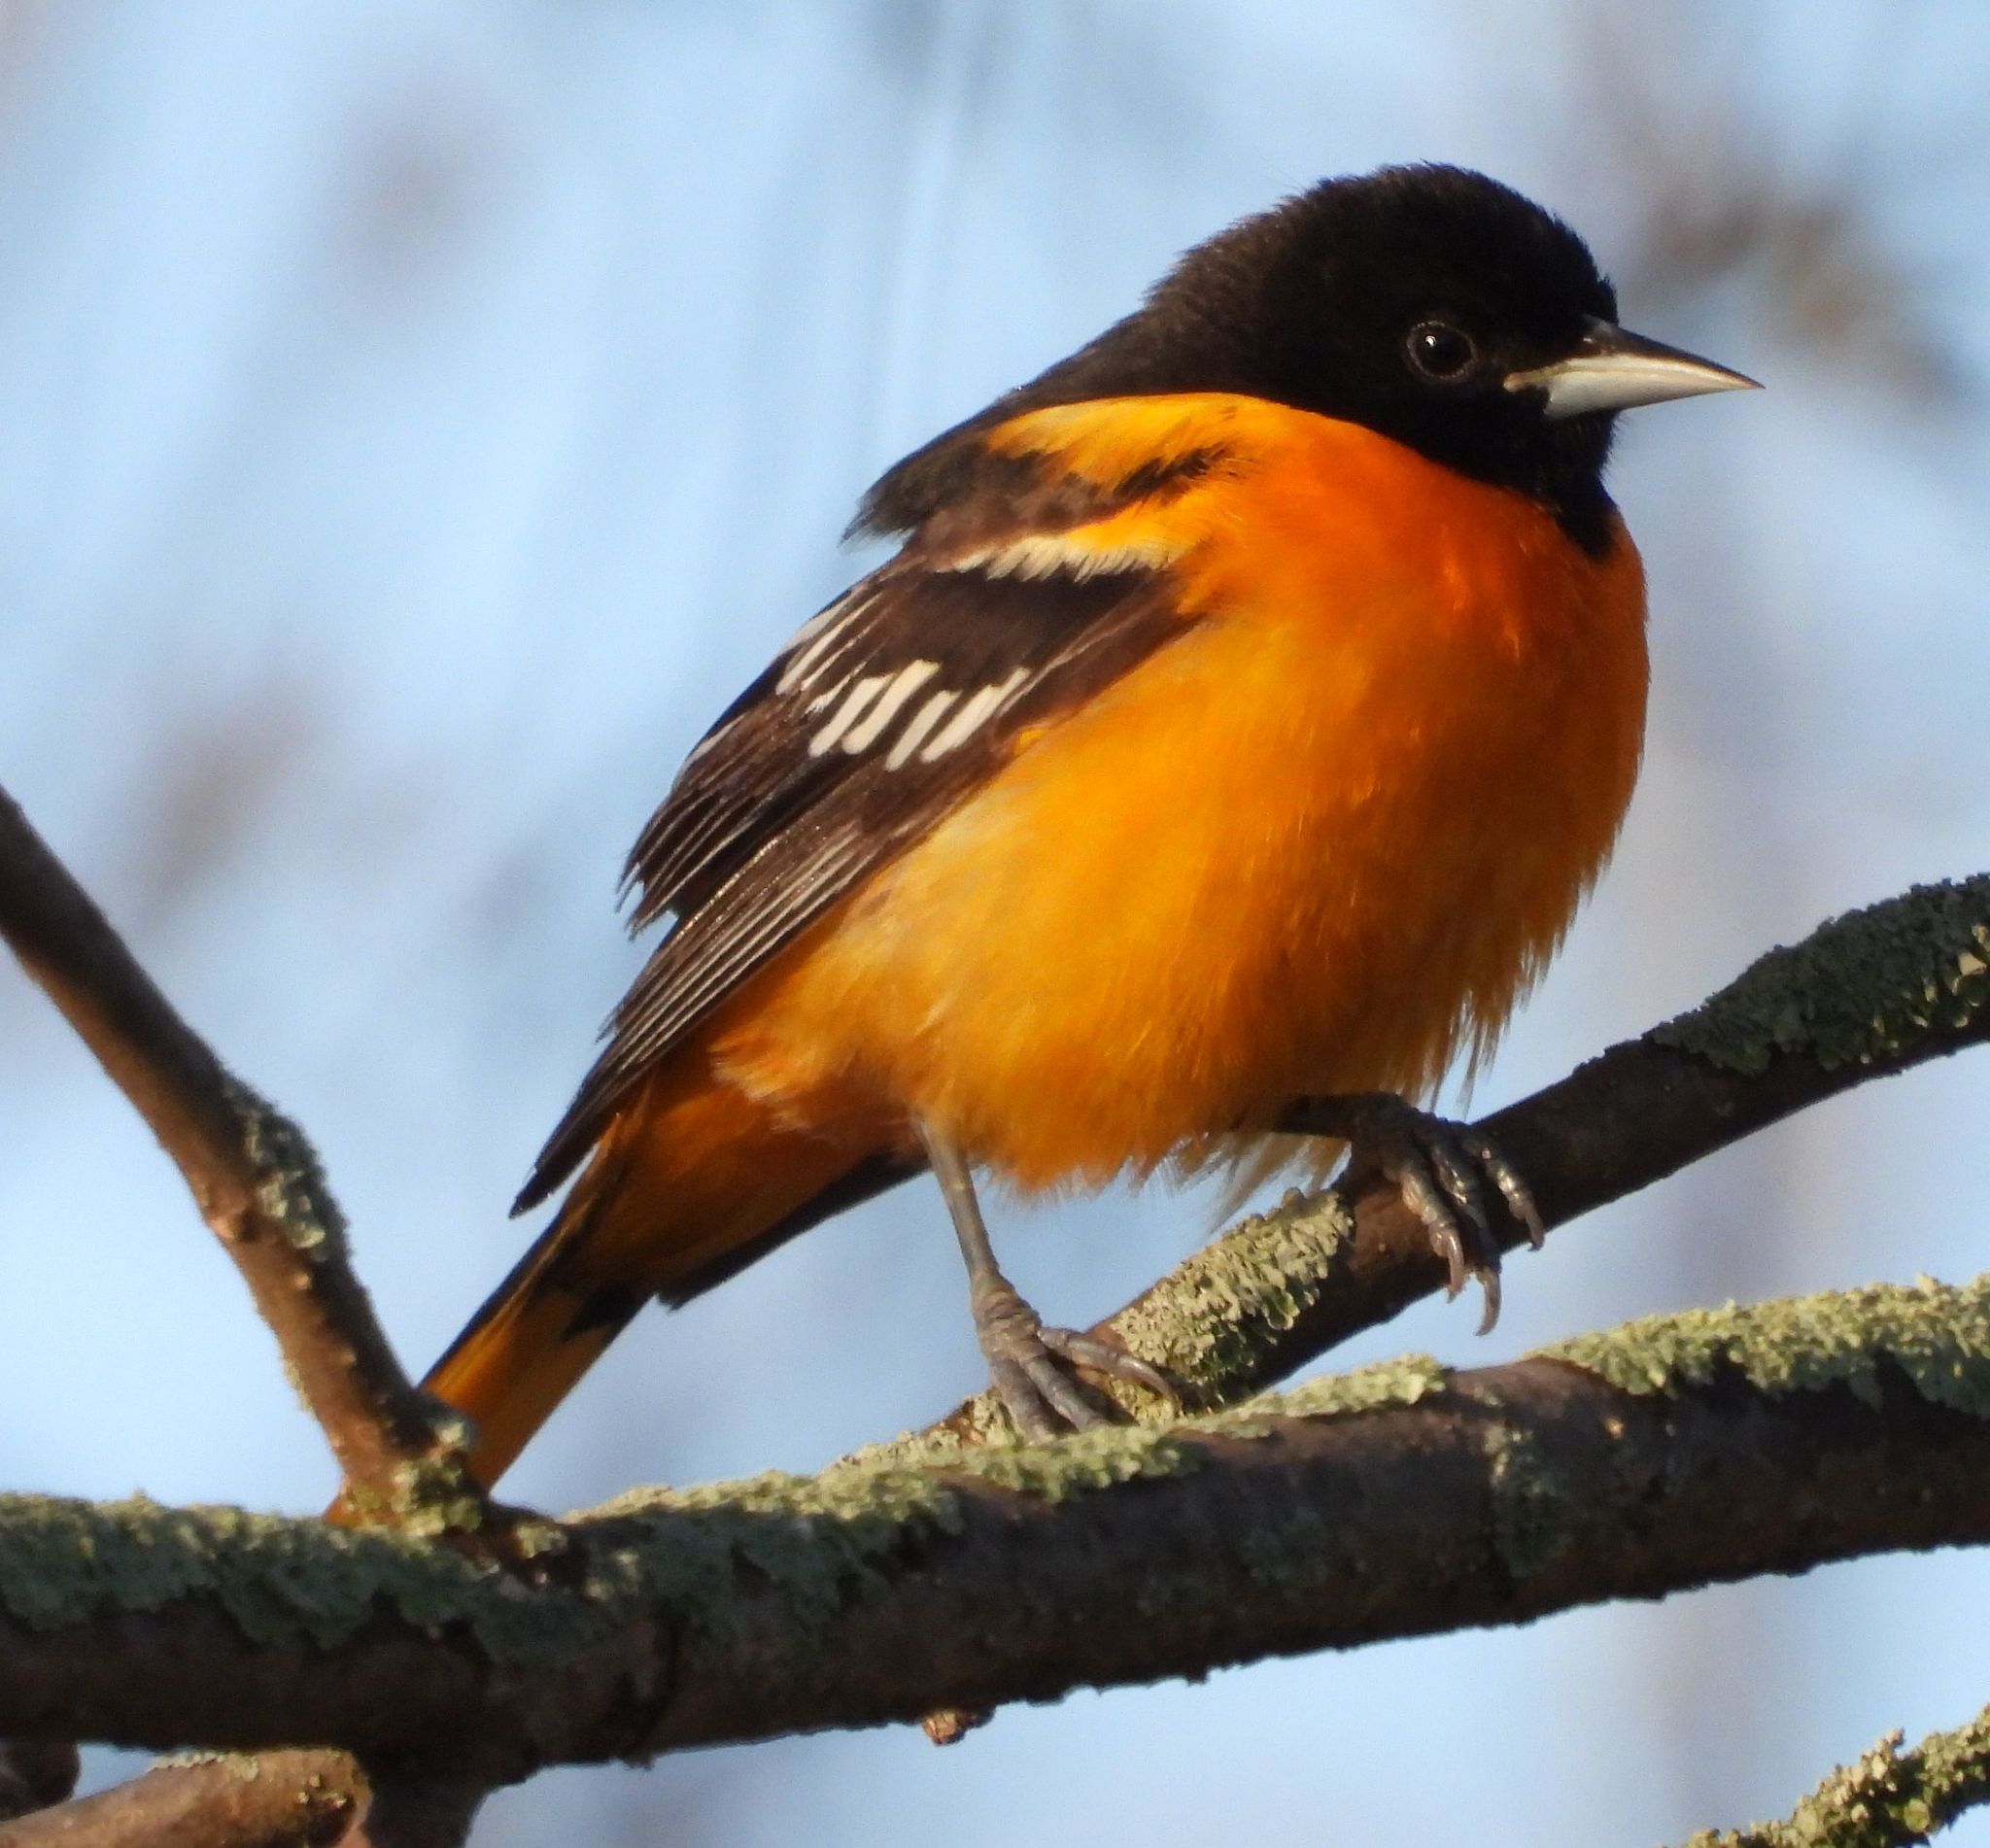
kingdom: Animalia
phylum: Chordata
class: Aves
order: Passeriformes
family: Icteridae
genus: Icterus
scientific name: Icterus galbula
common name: Baltimore oriole
